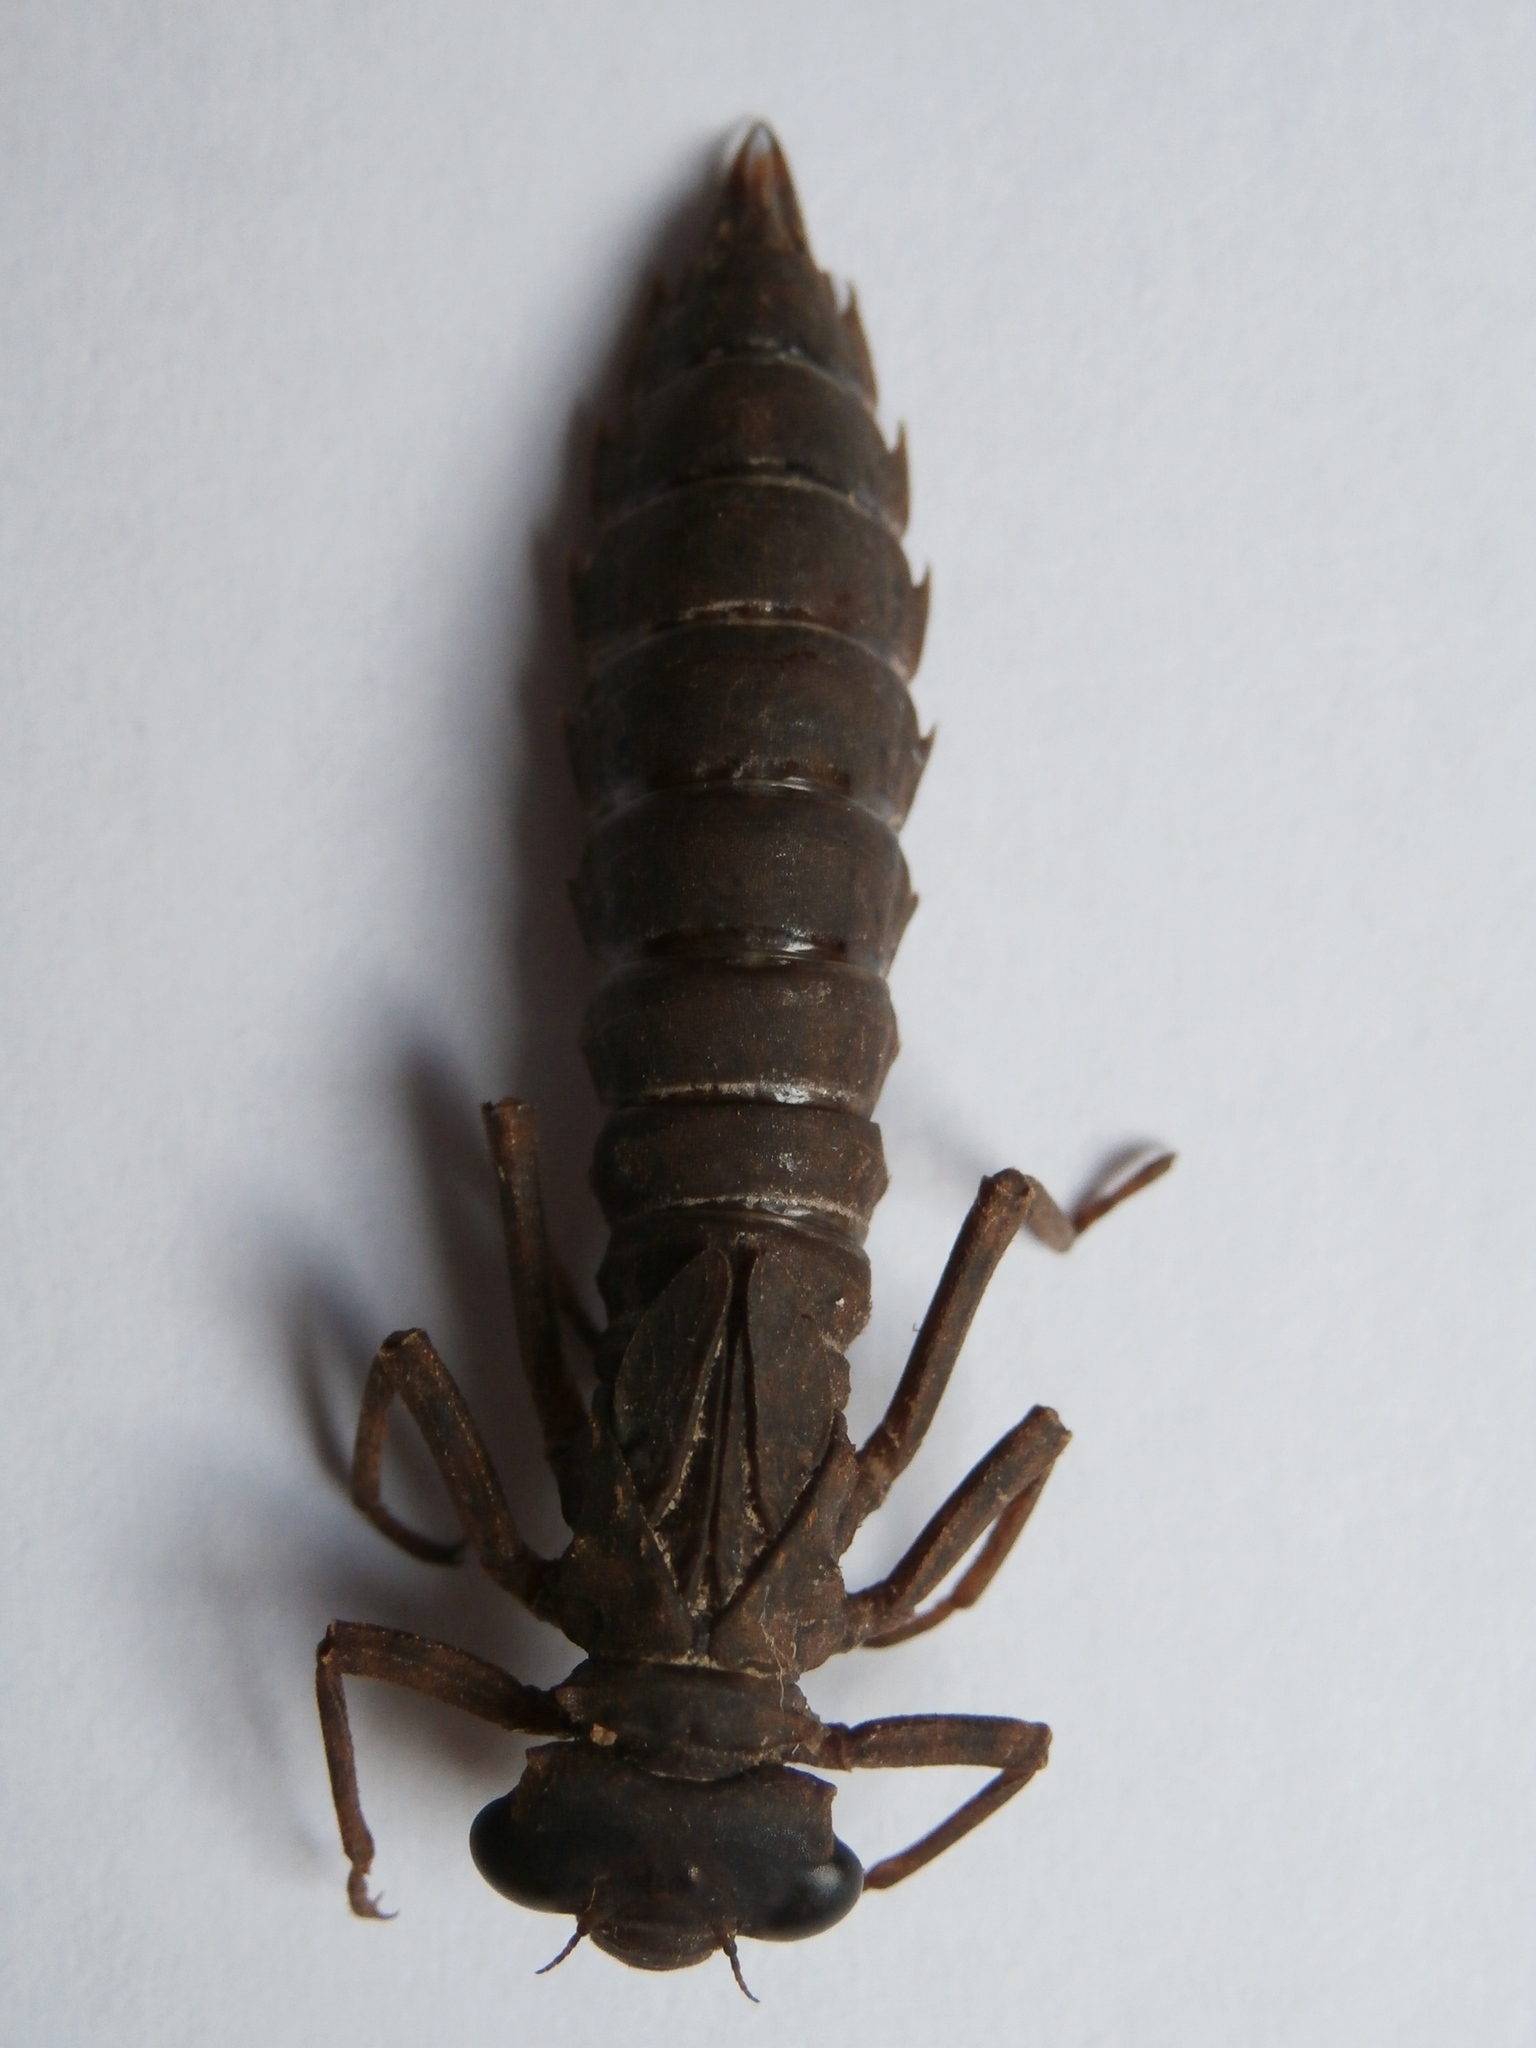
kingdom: Animalia
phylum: Arthropoda
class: Insecta
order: Odonata
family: Aeshnidae
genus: Boyeria
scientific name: Boyeria irene
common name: Western spectre
